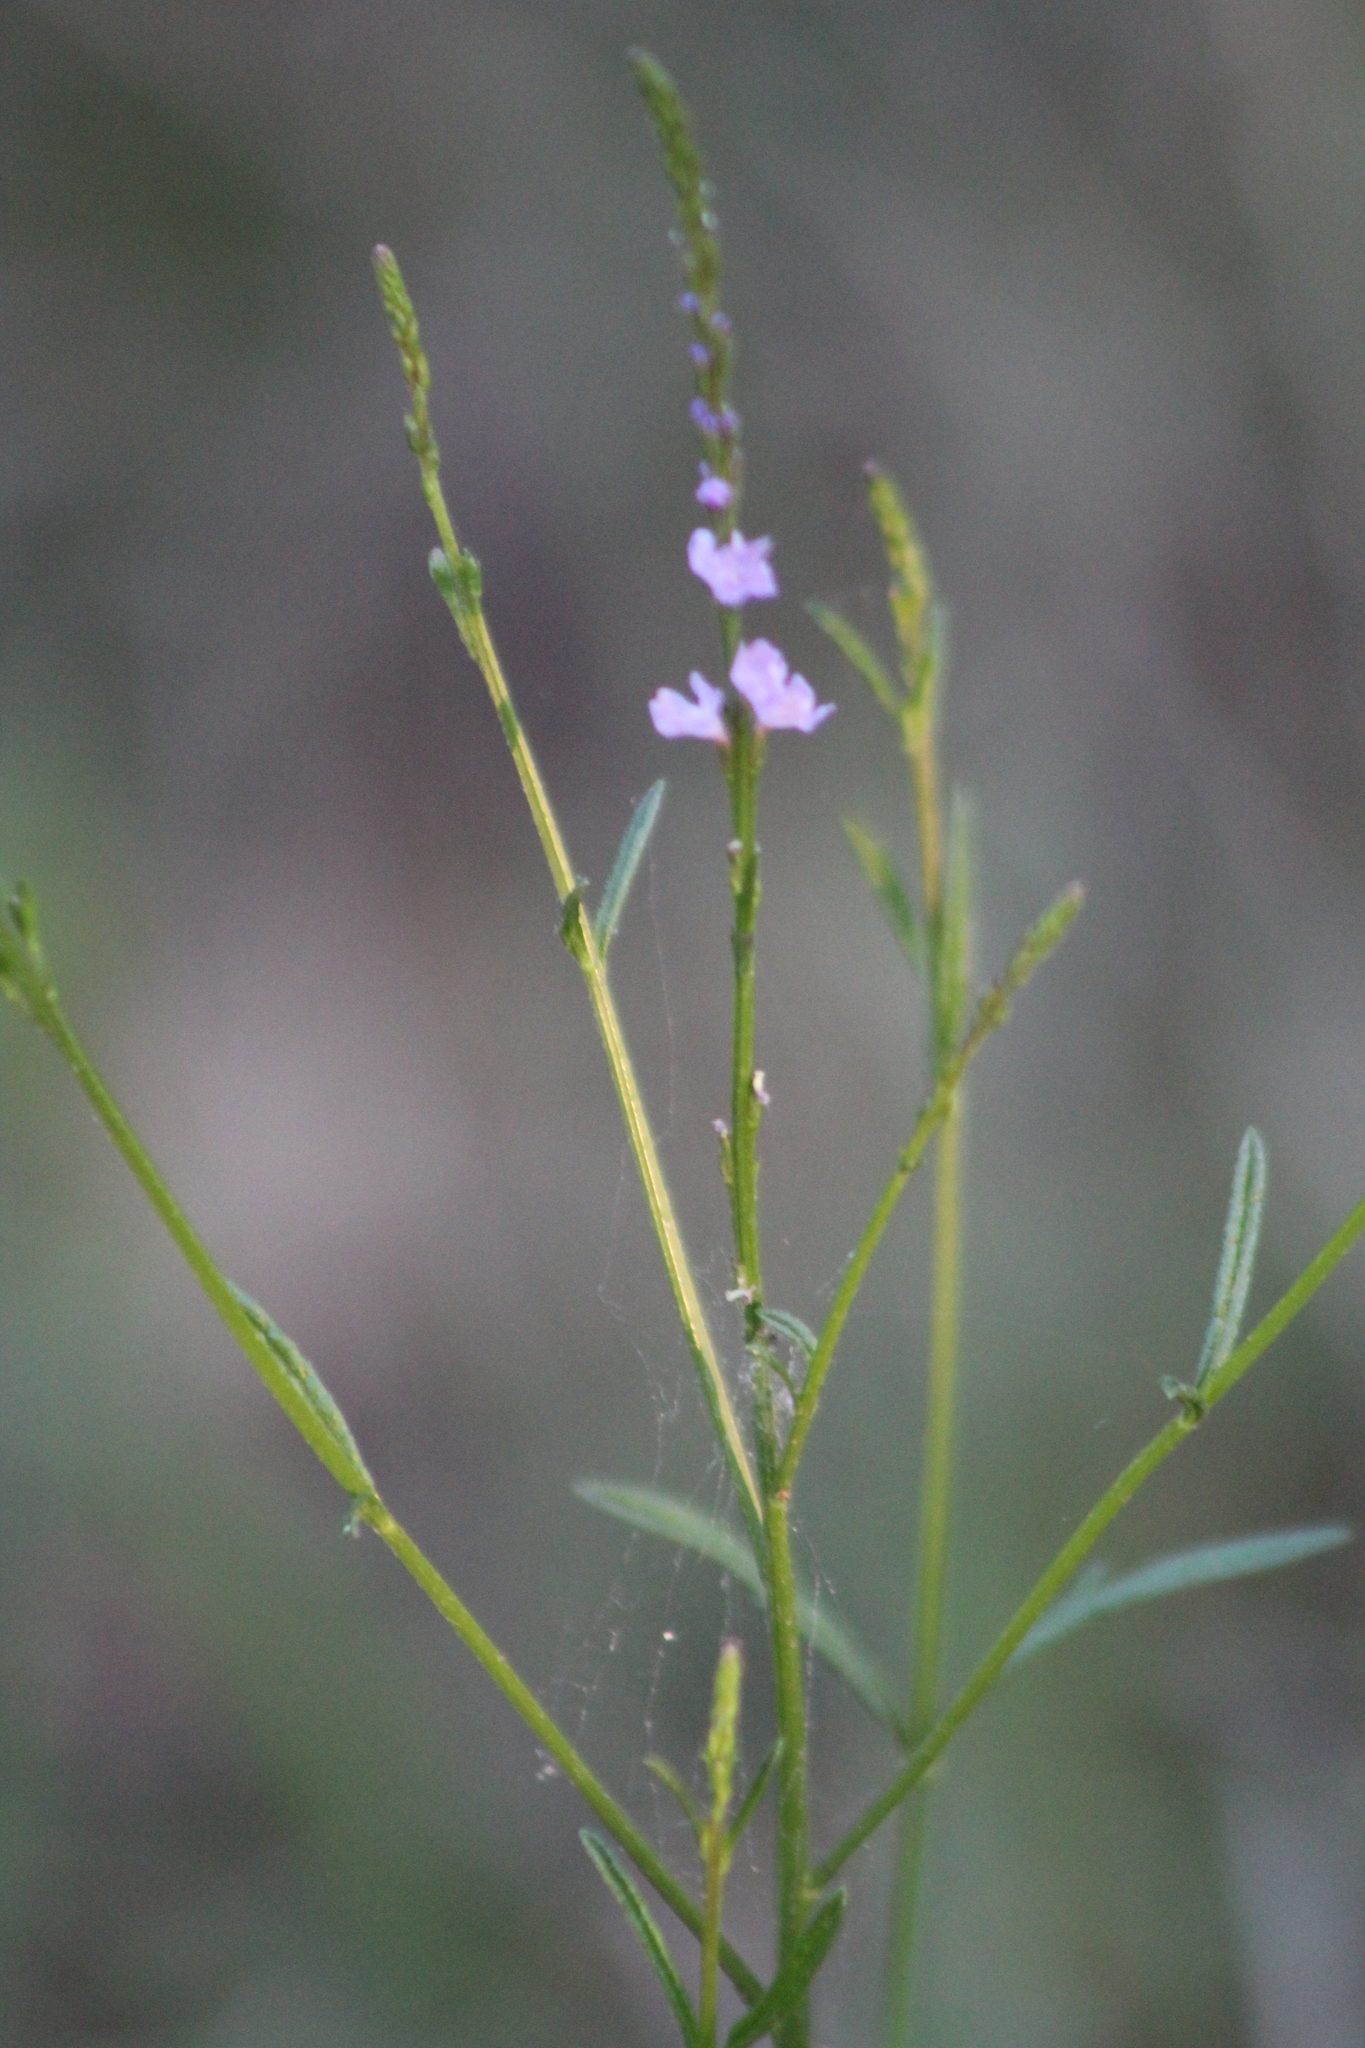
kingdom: Plantae
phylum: Tracheophyta
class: Magnoliopsida
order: Lamiales
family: Verbenaceae
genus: Verbena
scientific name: Verbena halei
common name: Texas vervain
